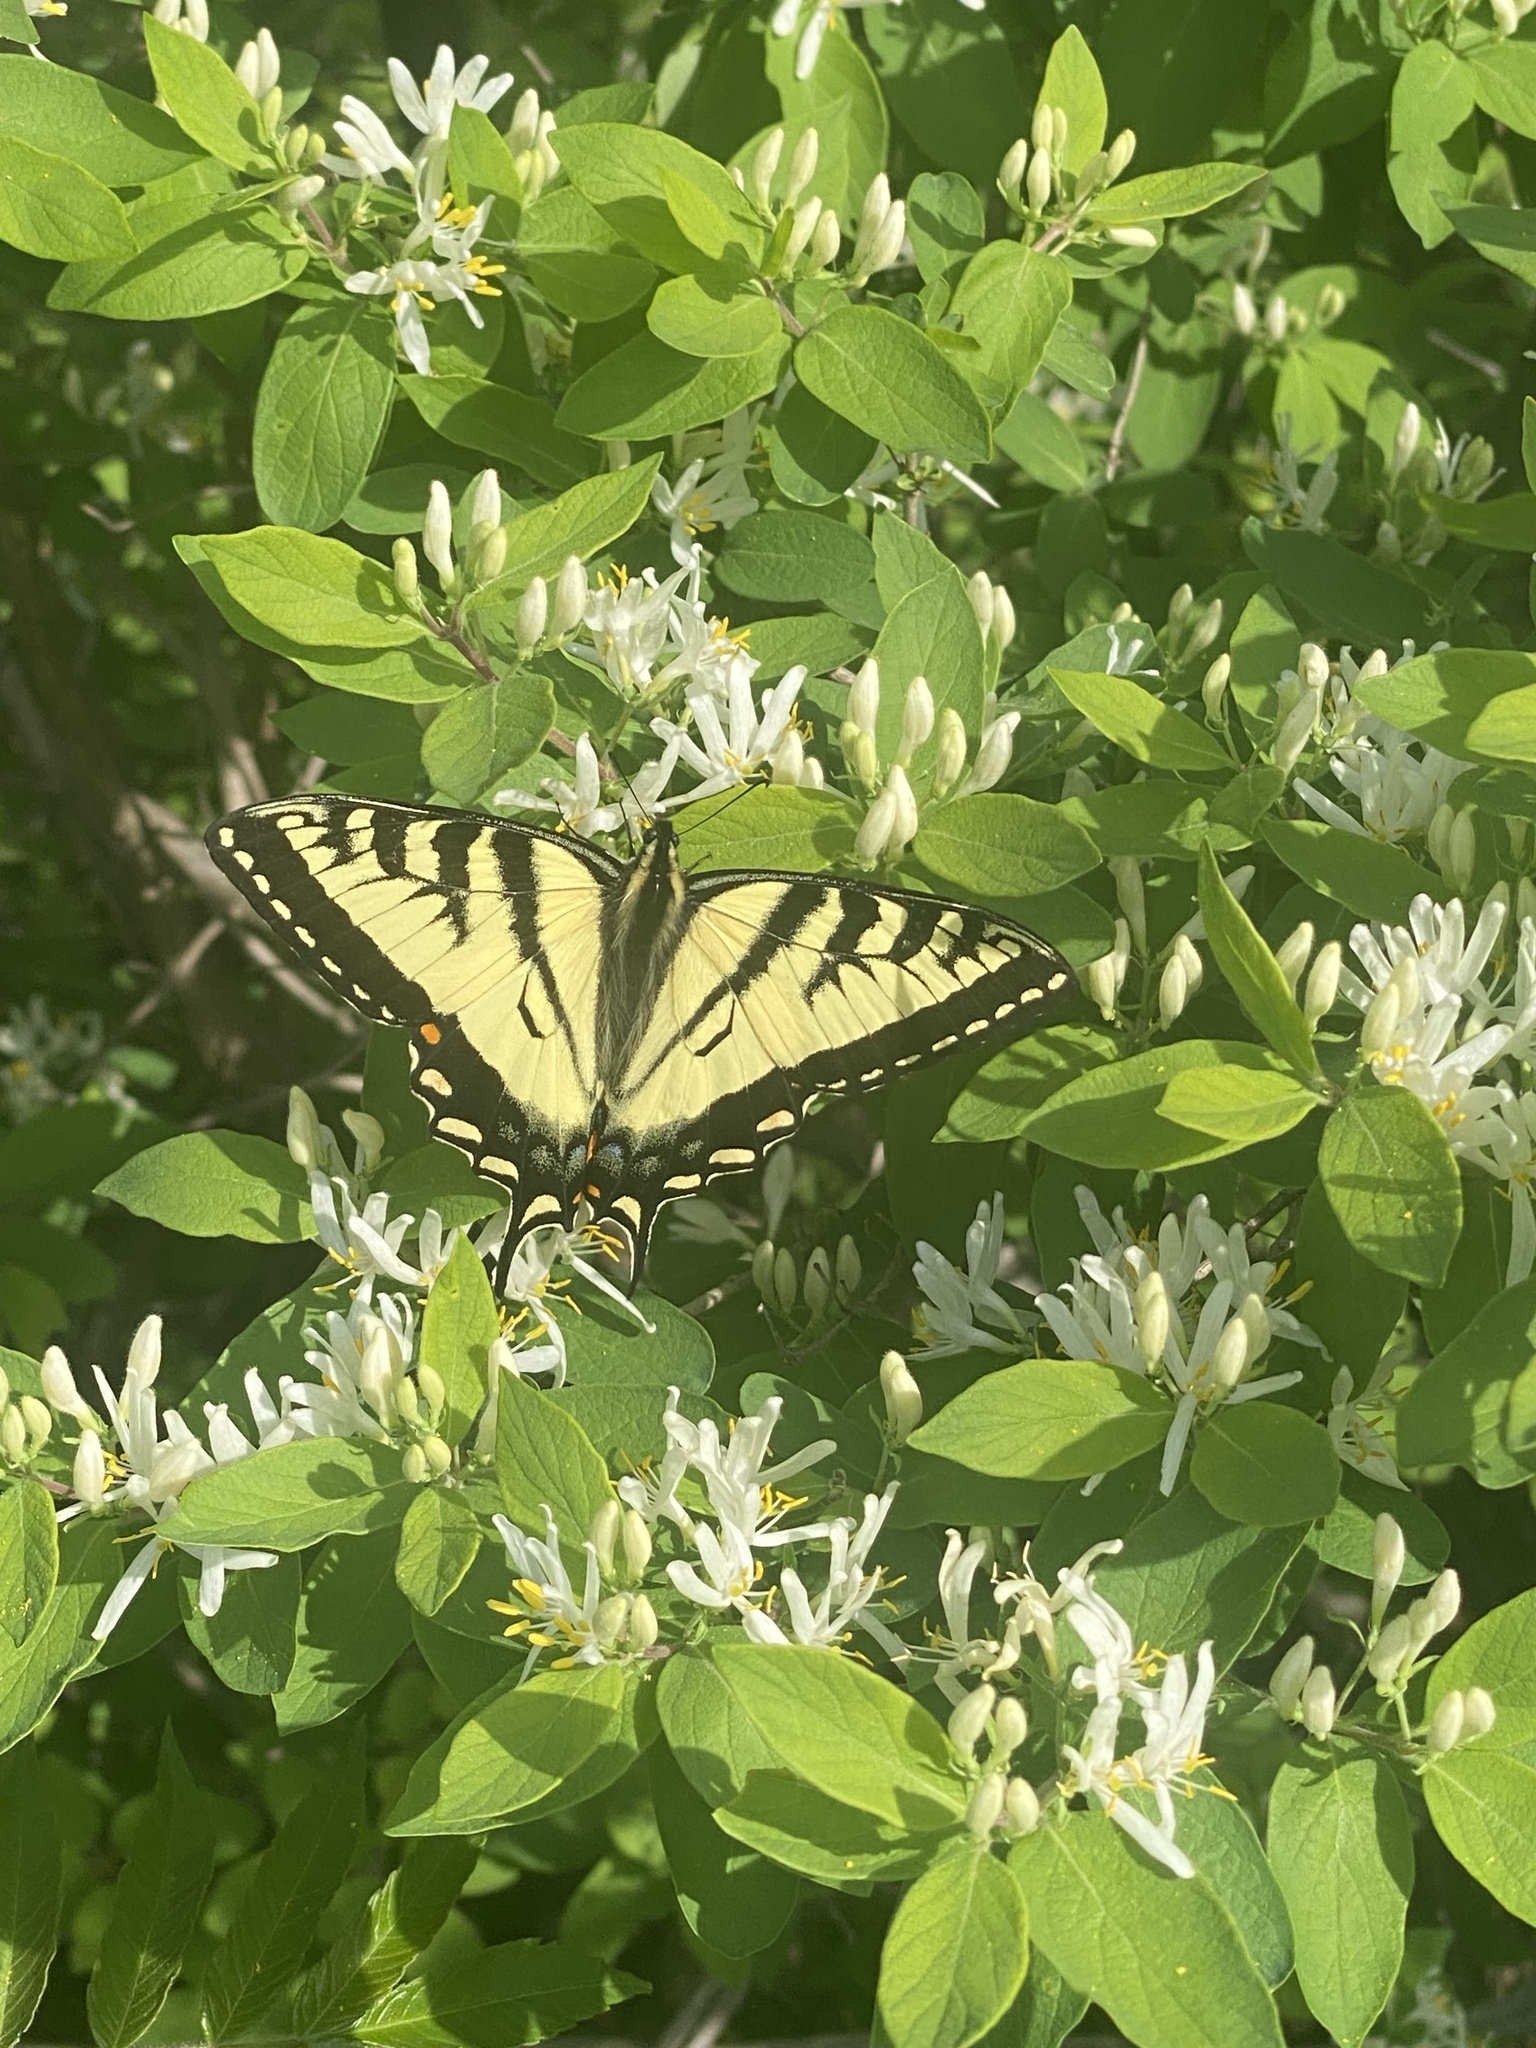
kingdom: Animalia
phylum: Arthropoda
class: Insecta
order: Lepidoptera
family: Papilionidae
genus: Papilio
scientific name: Papilio canadensis
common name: Canadian tiger swallowtail
